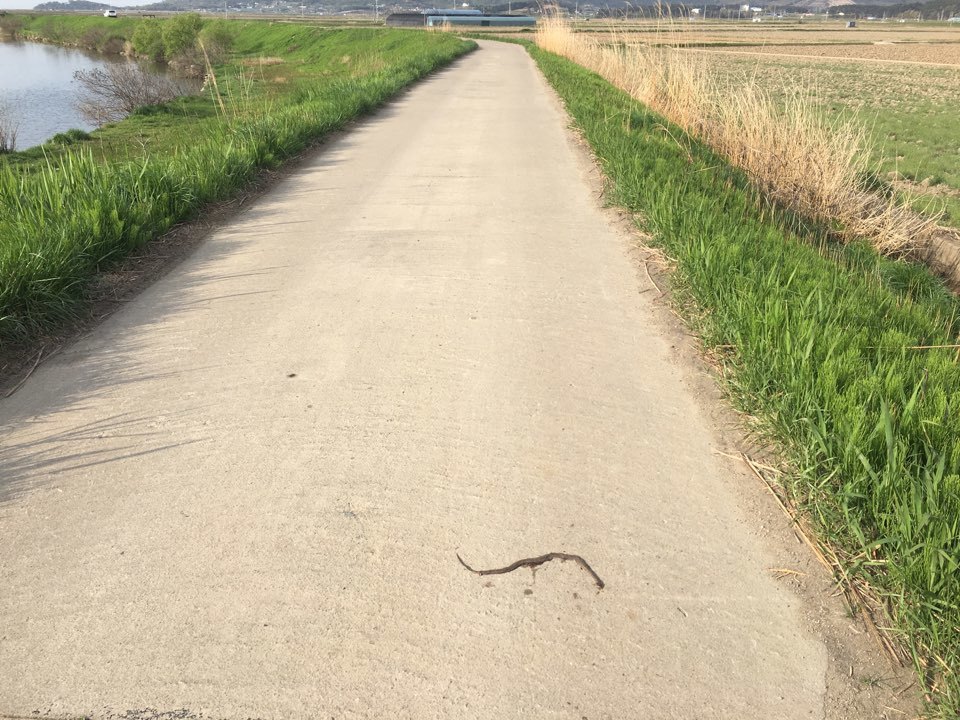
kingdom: Animalia
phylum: Chordata
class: Squamata
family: Colubridae
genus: Oocatochus
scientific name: Oocatochus rufodorsatus
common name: Frog-eating rat snake
